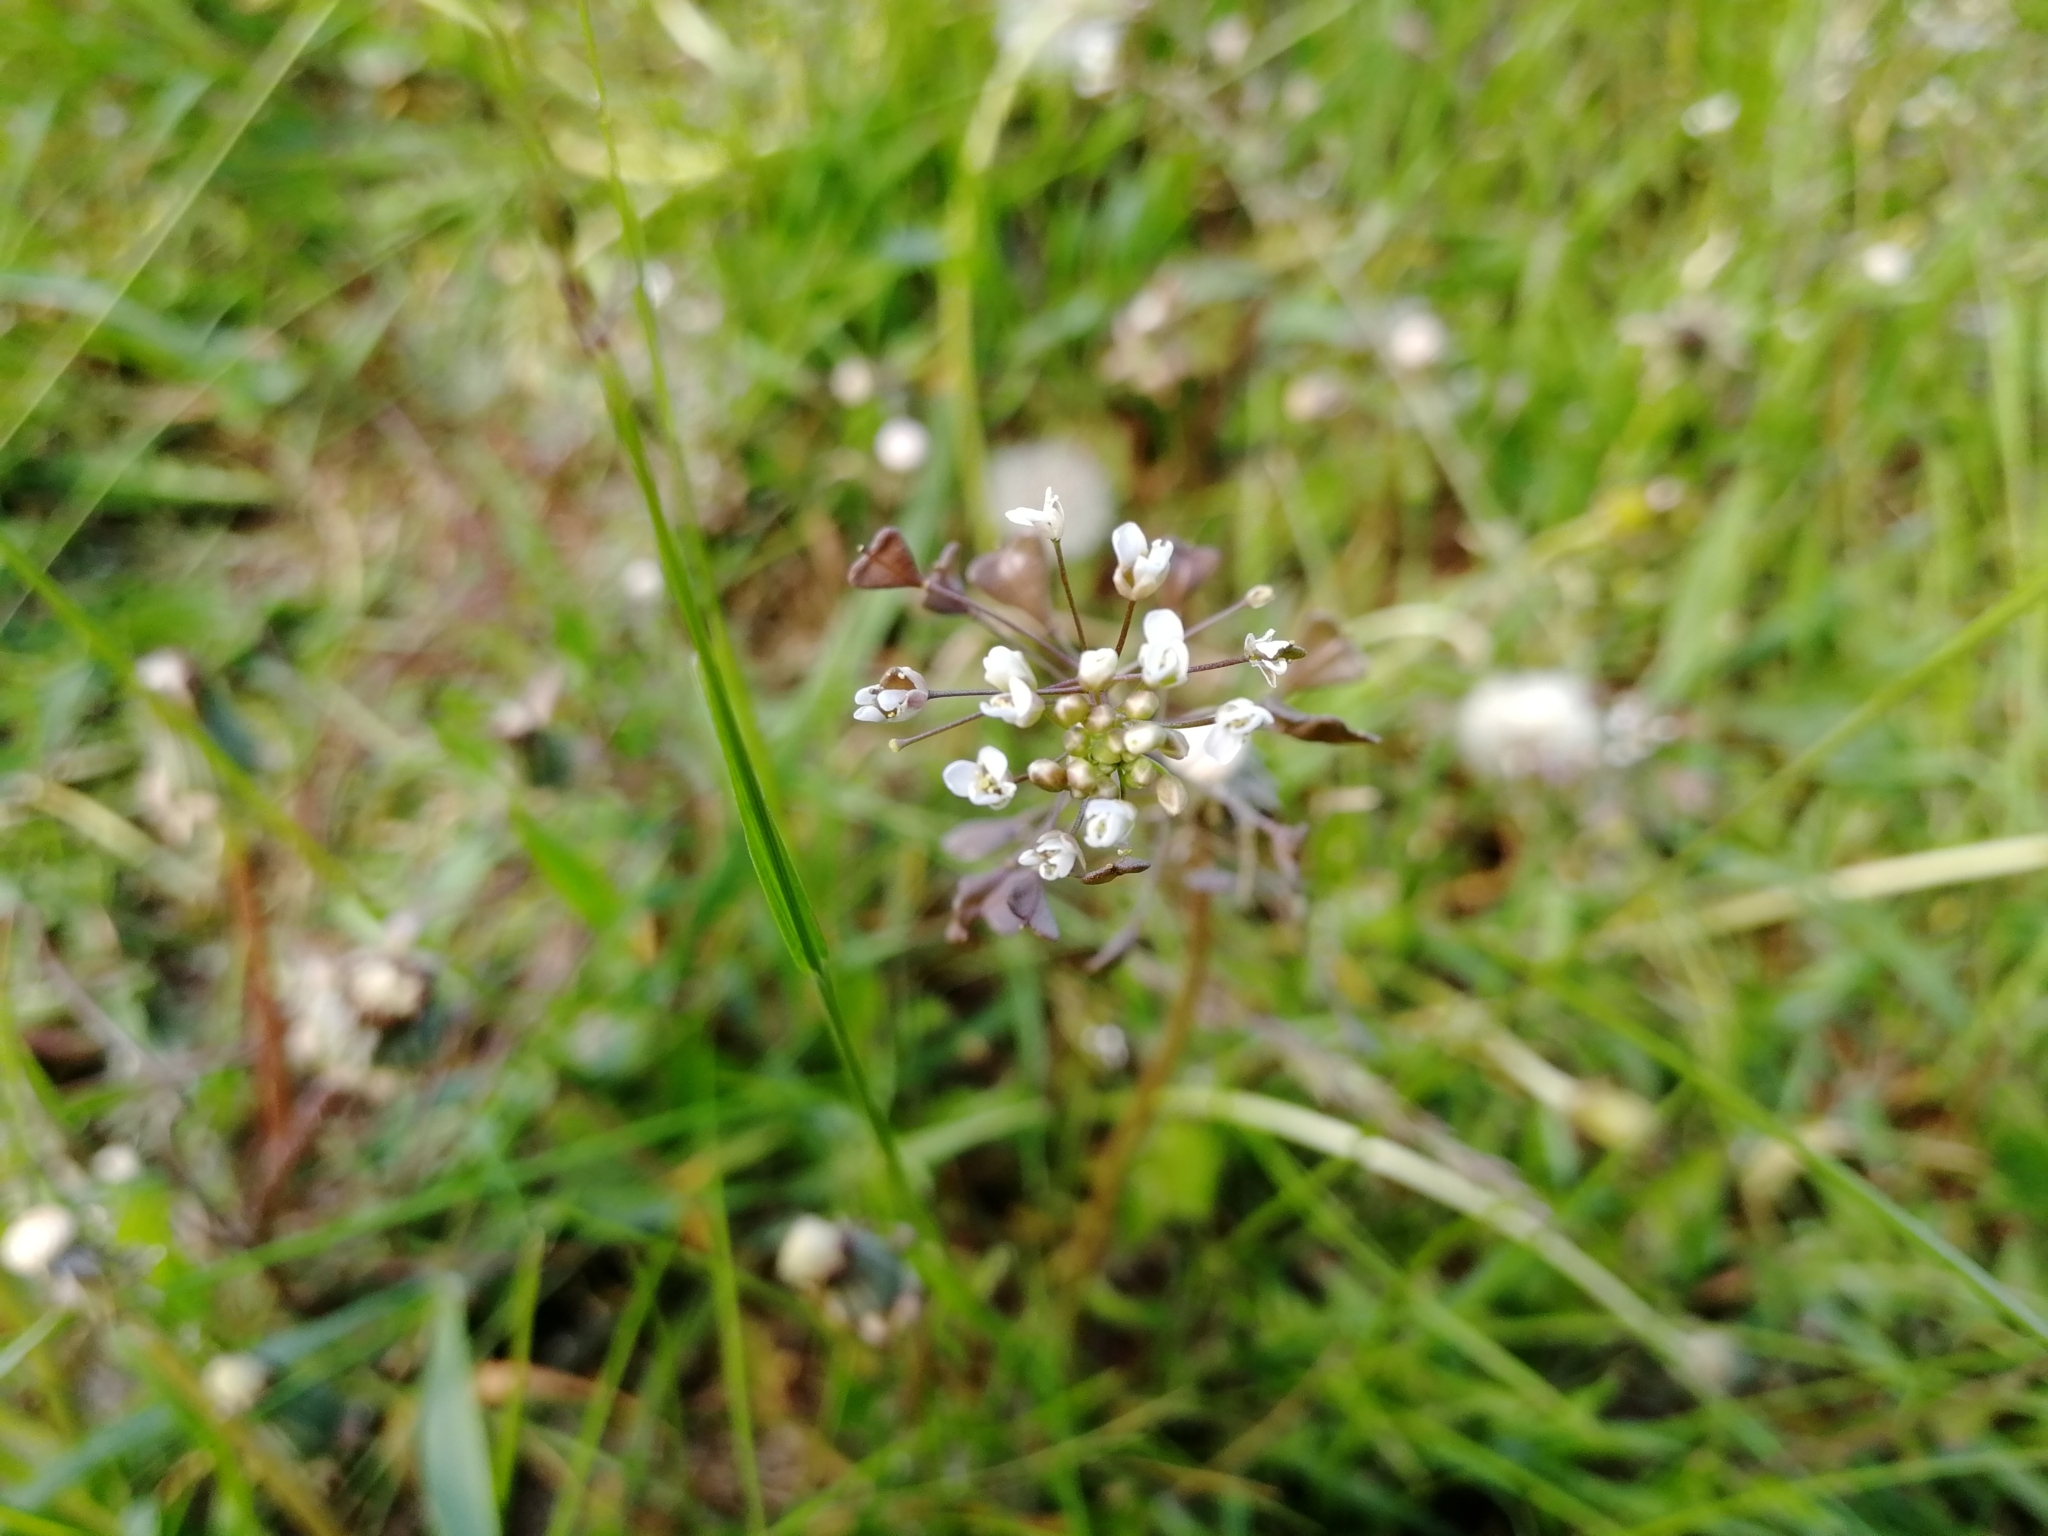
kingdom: Plantae
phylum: Tracheophyta
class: Magnoliopsida
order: Brassicales
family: Brassicaceae
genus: Capsella
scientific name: Capsella bursa-pastoris
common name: Shepherd's purse
